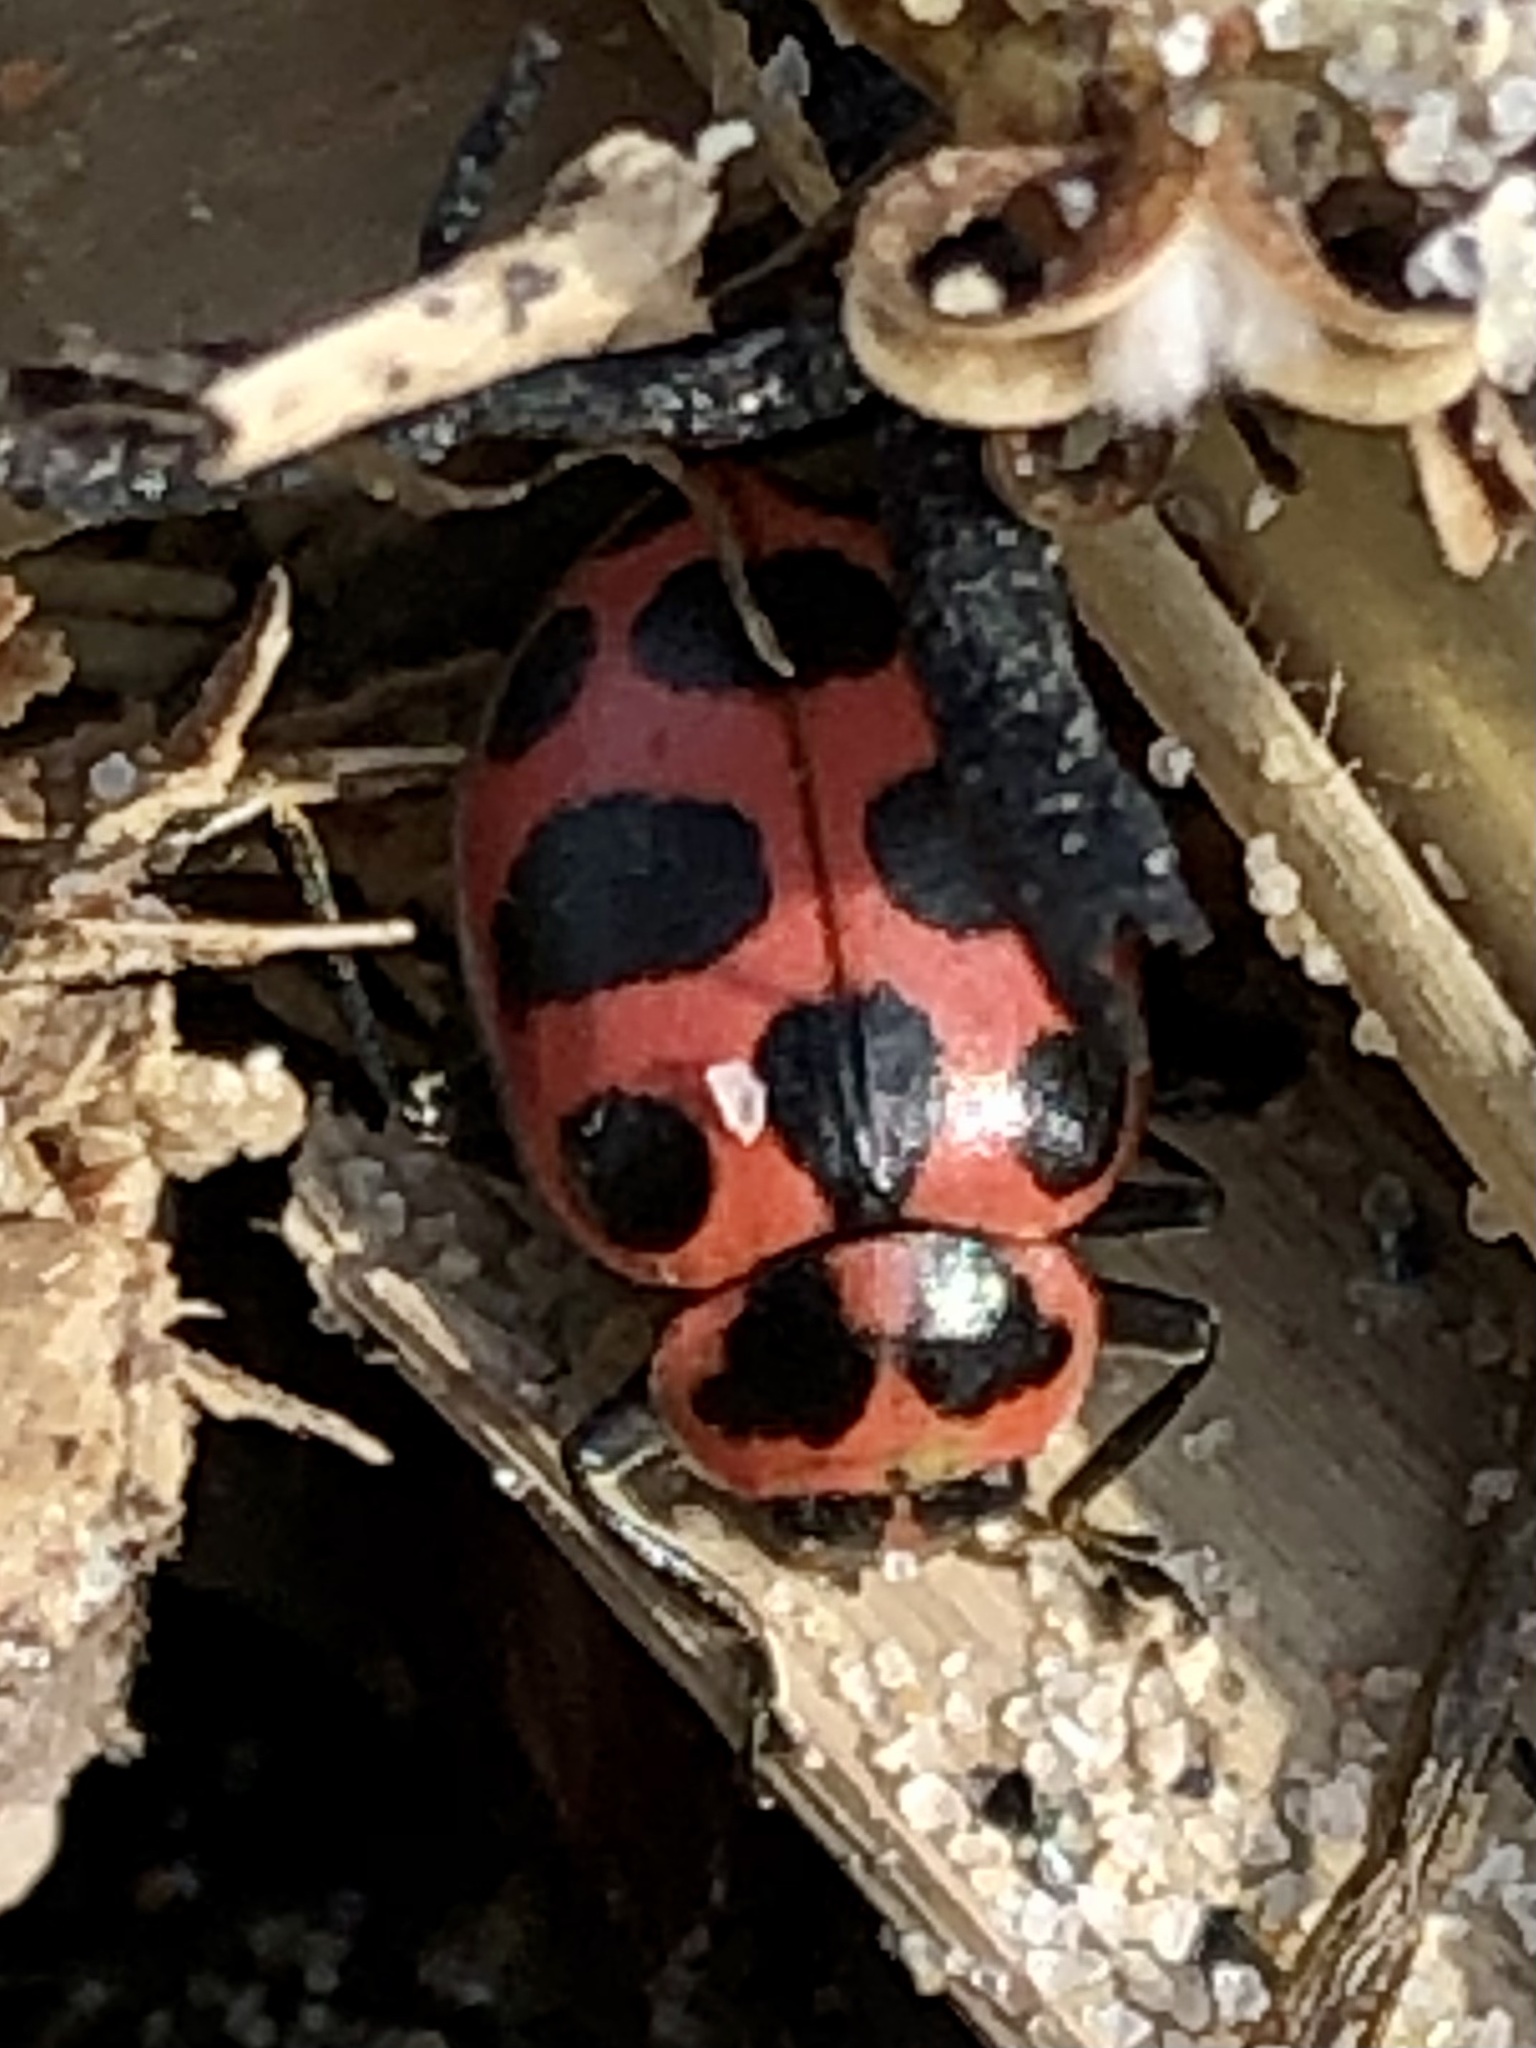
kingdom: Animalia
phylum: Arthropoda
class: Insecta
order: Coleoptera
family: Coccinellidae
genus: Coleomegilla
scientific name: Coleomegilla maculata
